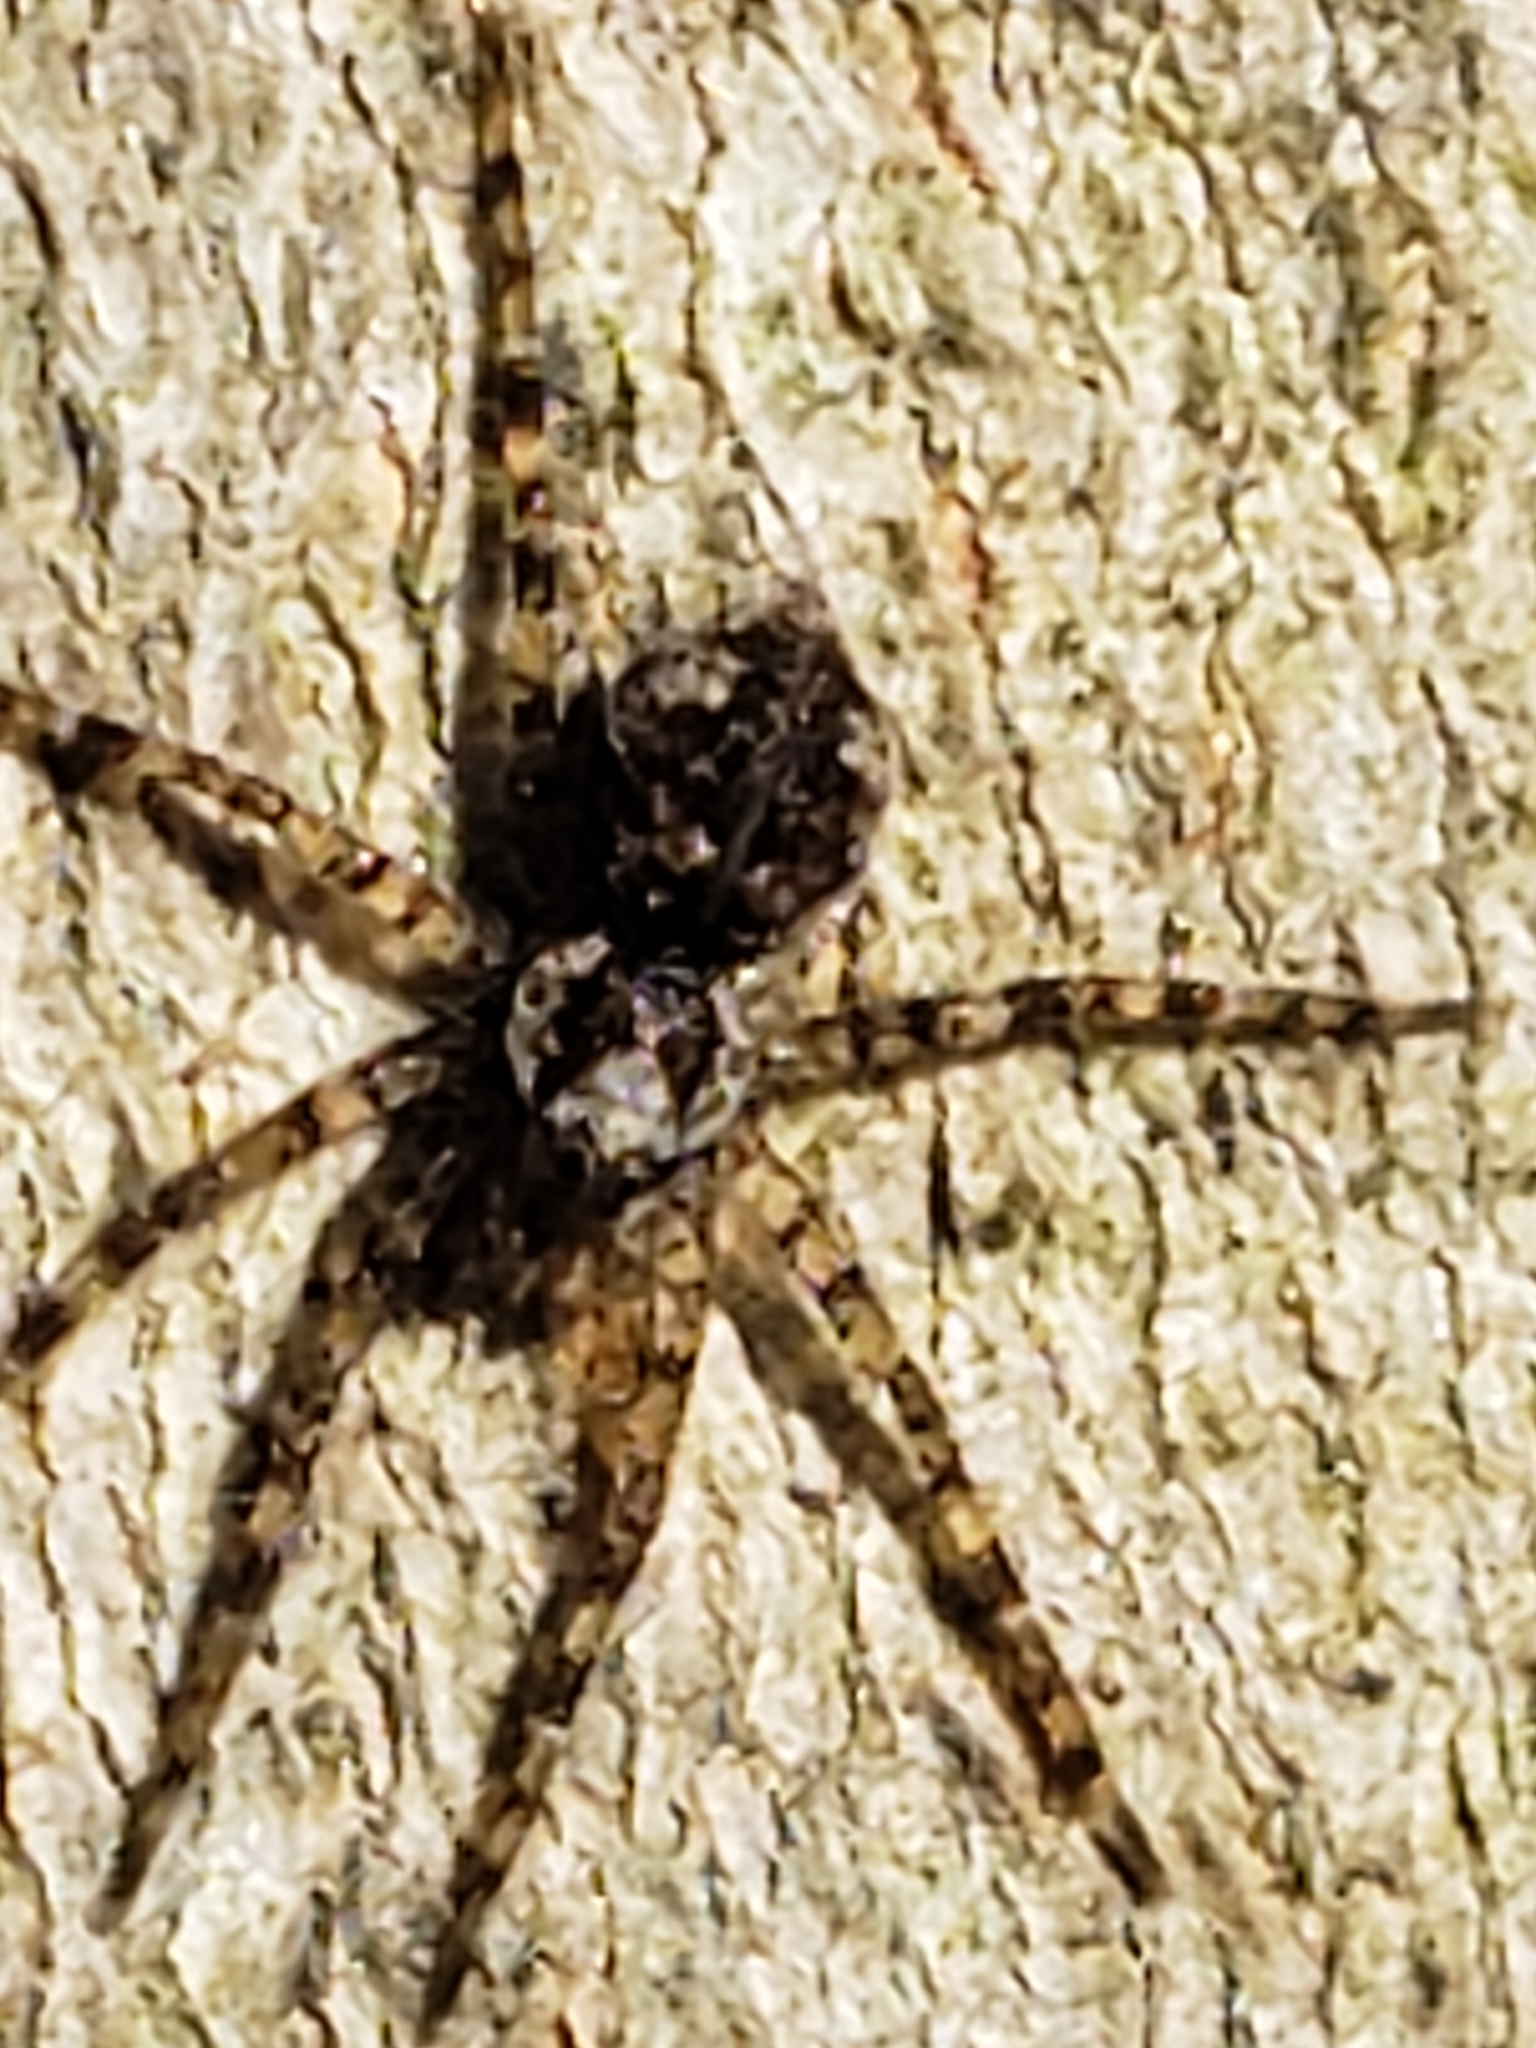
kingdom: Animalia
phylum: Arthropoda
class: Arachnida
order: Araneae
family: Pisauridae
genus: Dolomedes
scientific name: Dolomedes albineus
